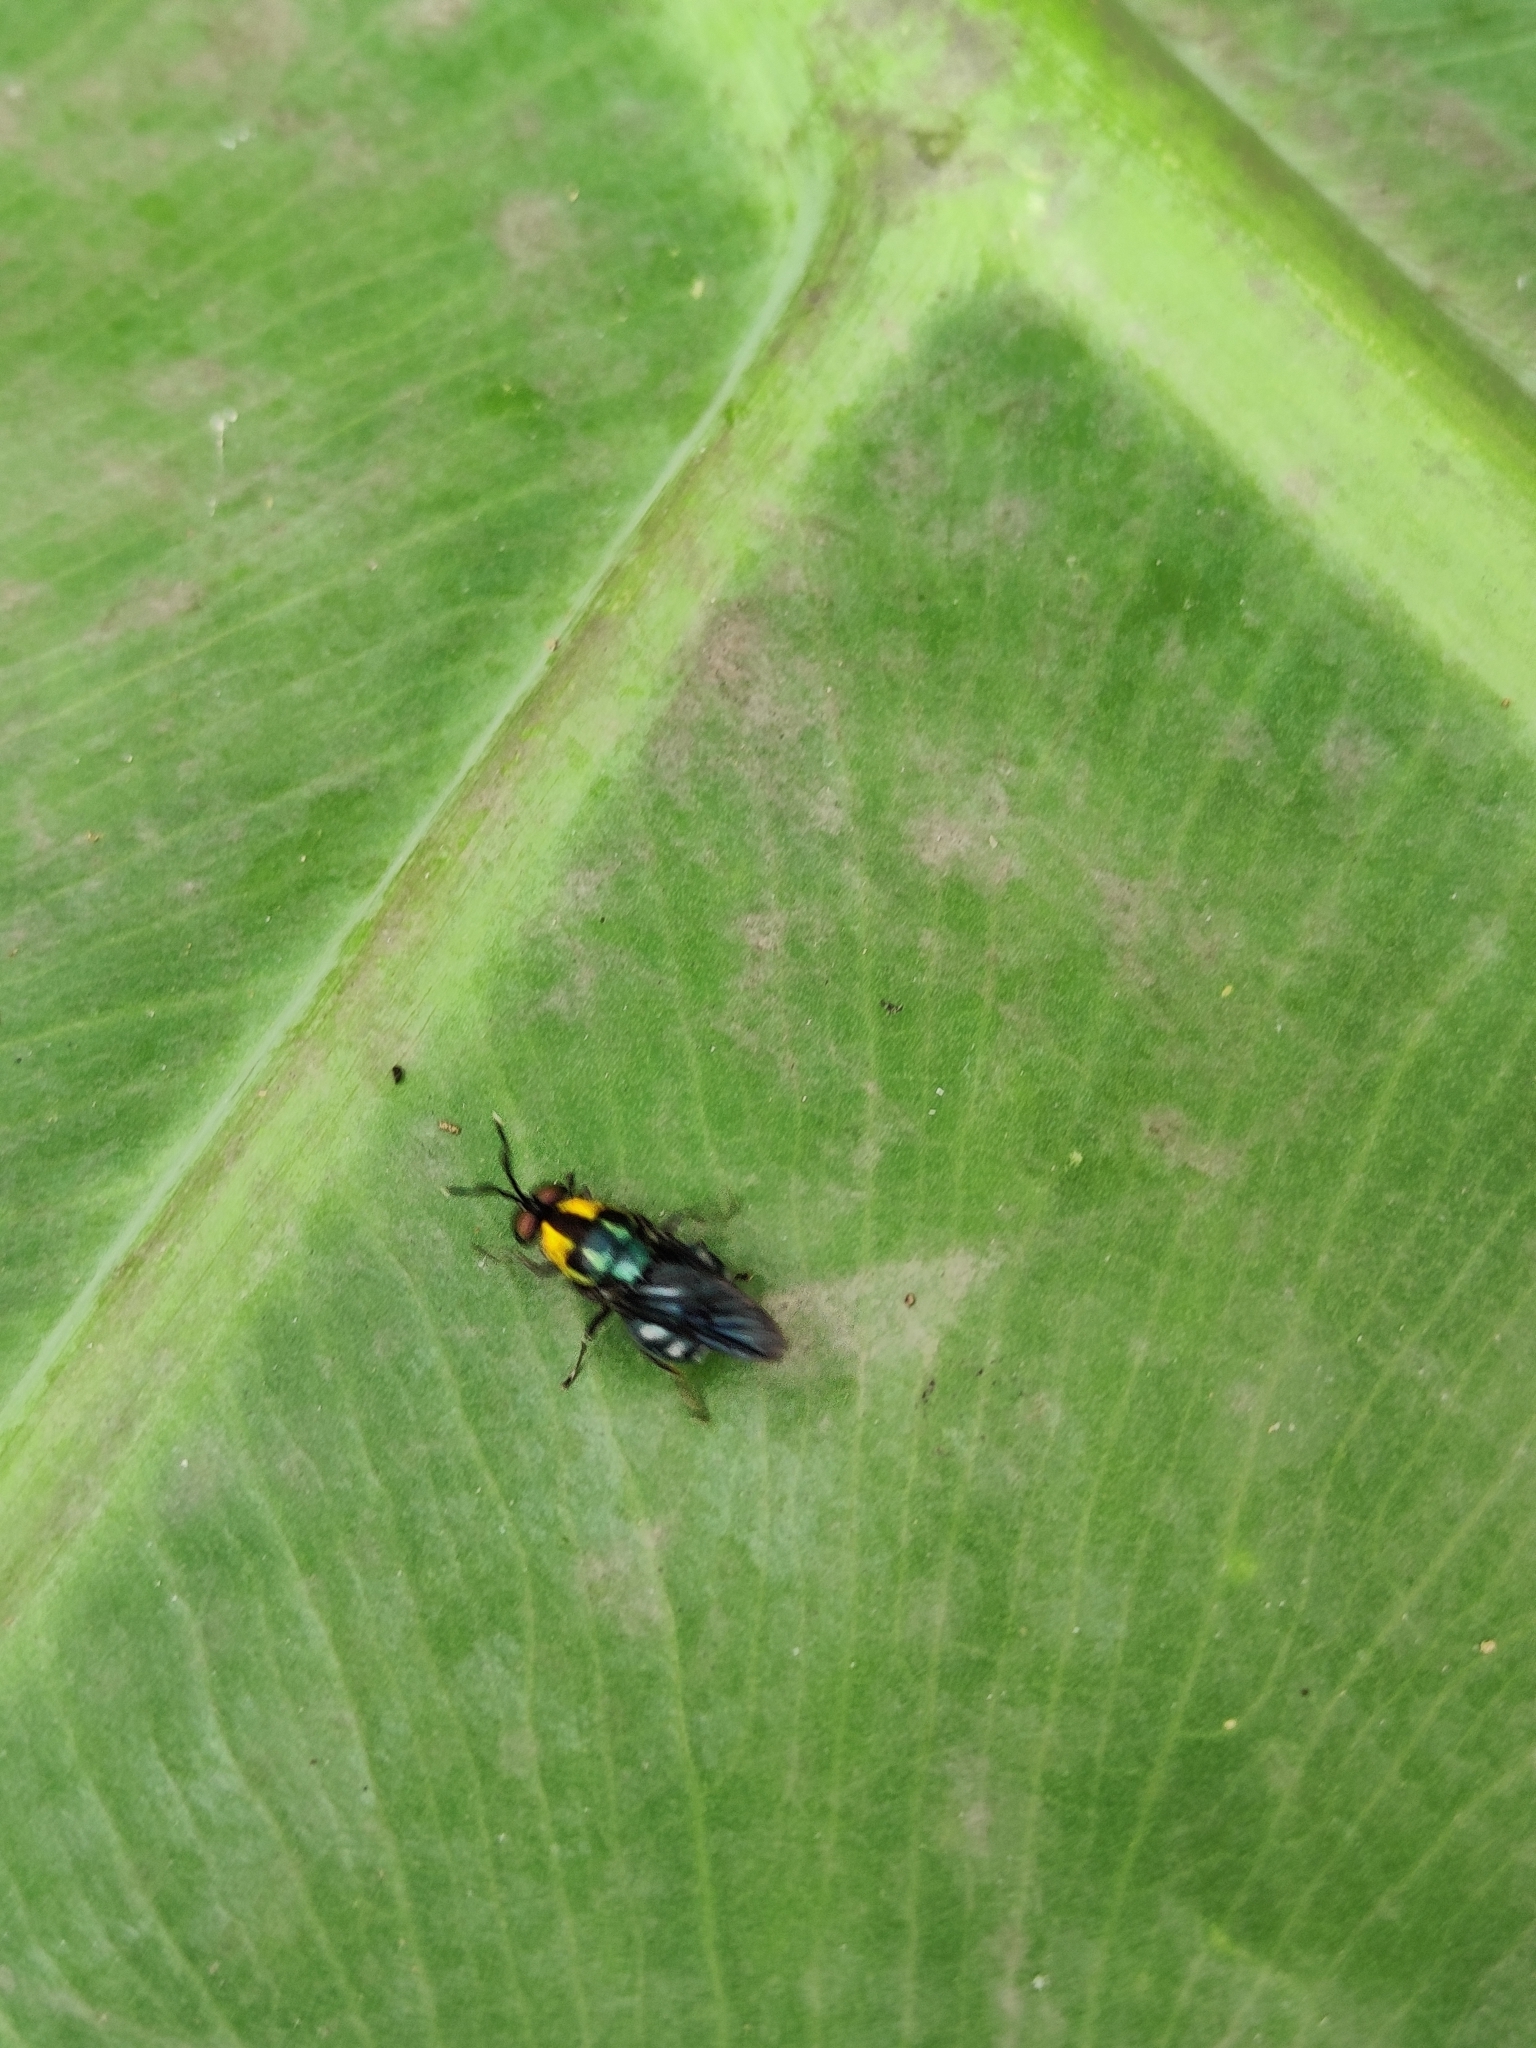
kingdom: Animalia
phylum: Arthropoda
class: Insecta
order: Diptera
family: Stratiomyidae
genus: Ptilocera
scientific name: Ptilocera quadridentata
